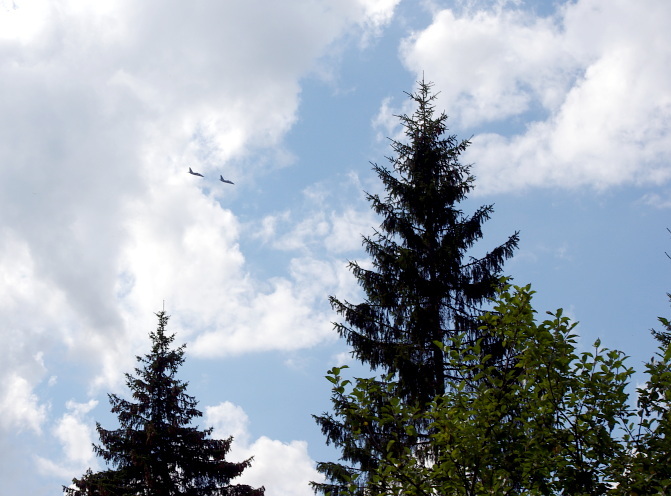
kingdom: Plantae
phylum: Tracheophyta
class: Pinopsida
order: Pinales
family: Pinaceae
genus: Picea
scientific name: Picea abies
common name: Norway spruce
